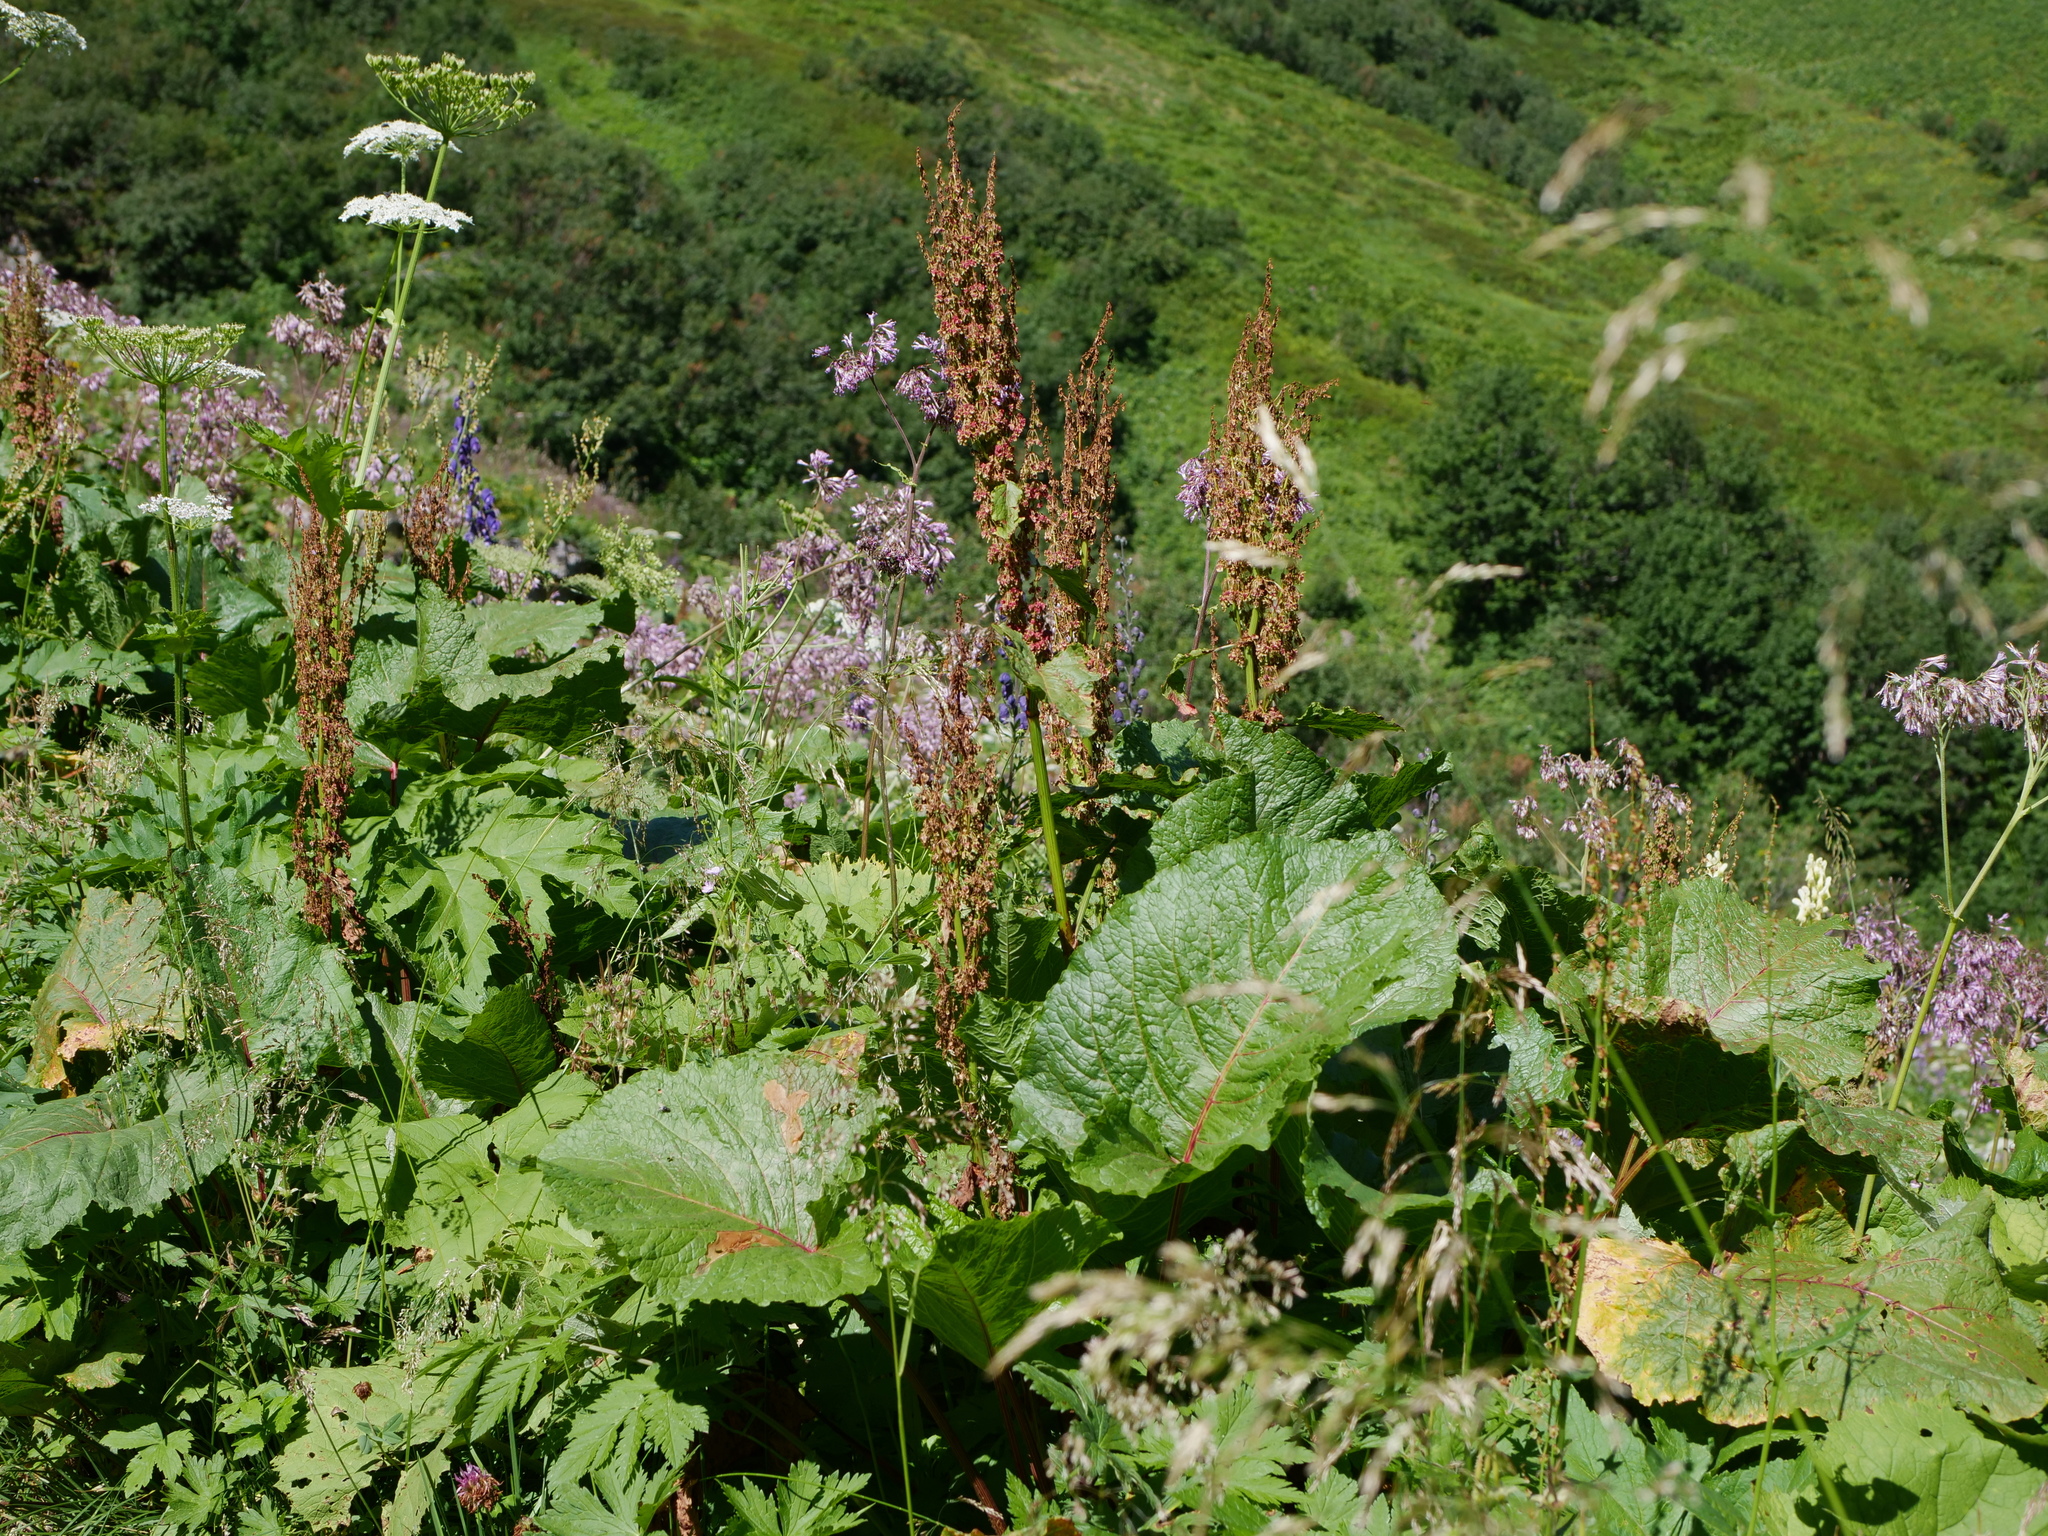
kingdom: Plantae
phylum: Tracheophyta
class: Magnoliopsida
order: Caryophyllales
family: Polygonaceae
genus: Rumex
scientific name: Rumex alpinus
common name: Alpine dock
